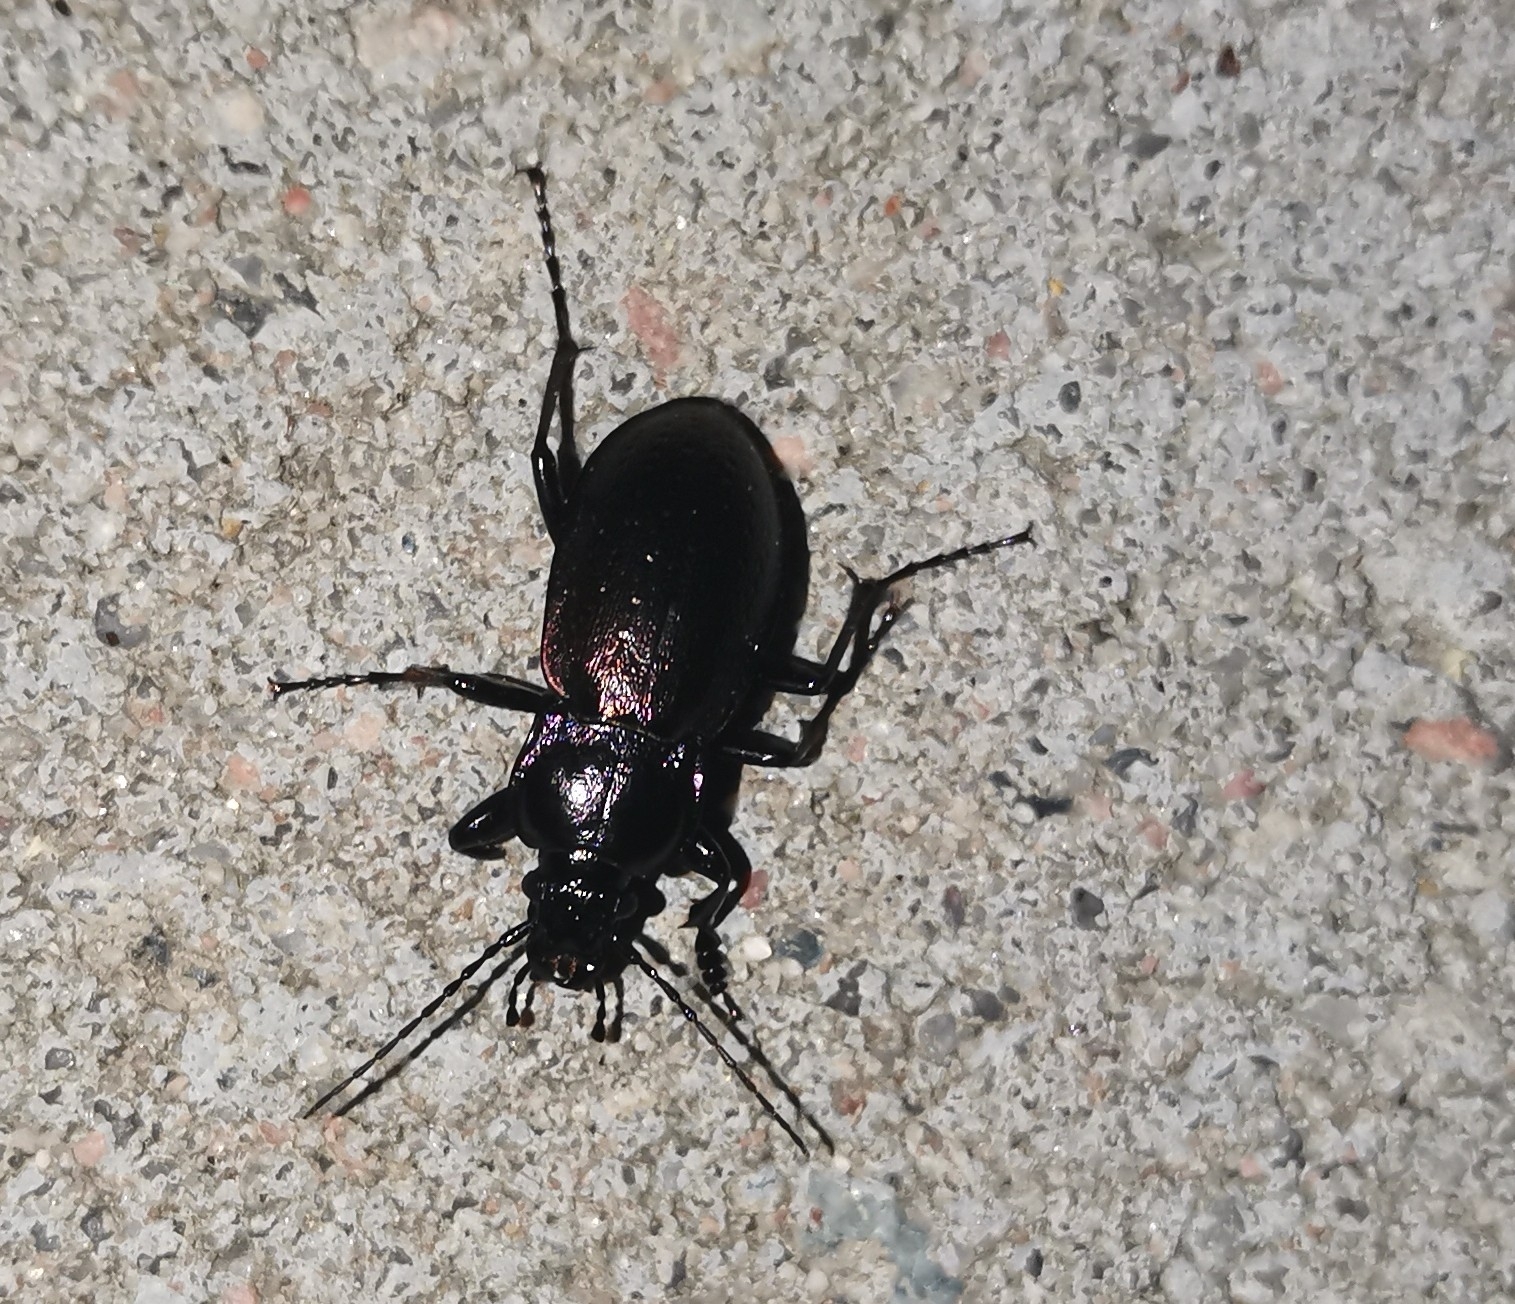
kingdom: Animalia
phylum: Arthropoda
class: Insecta
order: Coleoptera
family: Carabidae
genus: Carabus
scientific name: Carabus nemoralis
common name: European ground beetle
